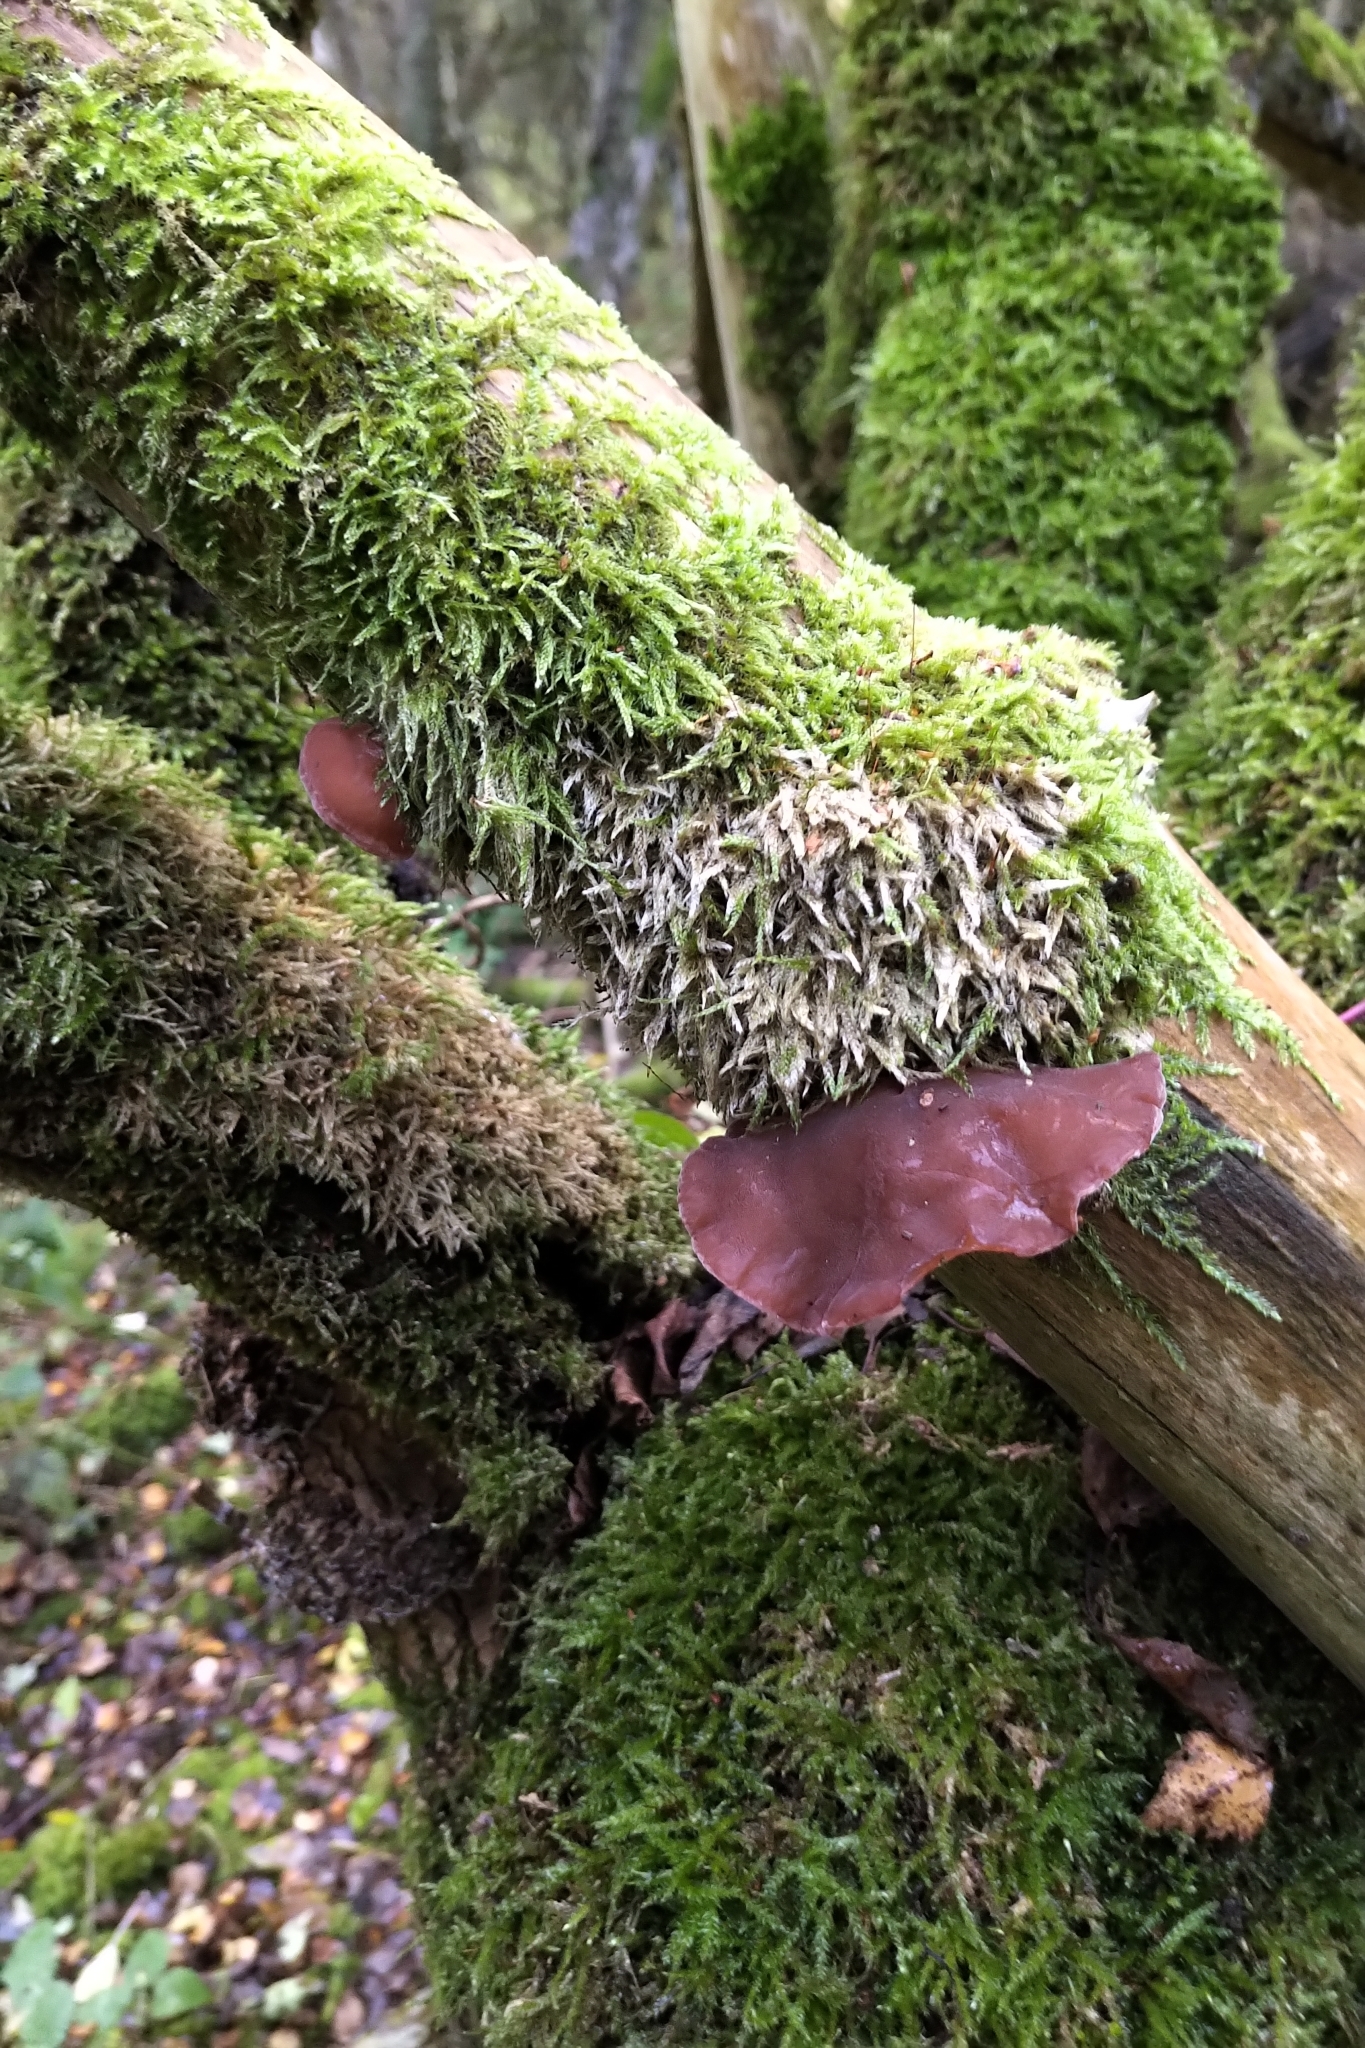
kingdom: Fungi
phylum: Basidiomycota
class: Agaricomycetes
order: Auriculariales
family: Auriculariaceae
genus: Auricularia
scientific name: Auricularia auricula-judae
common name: Jelly ear
